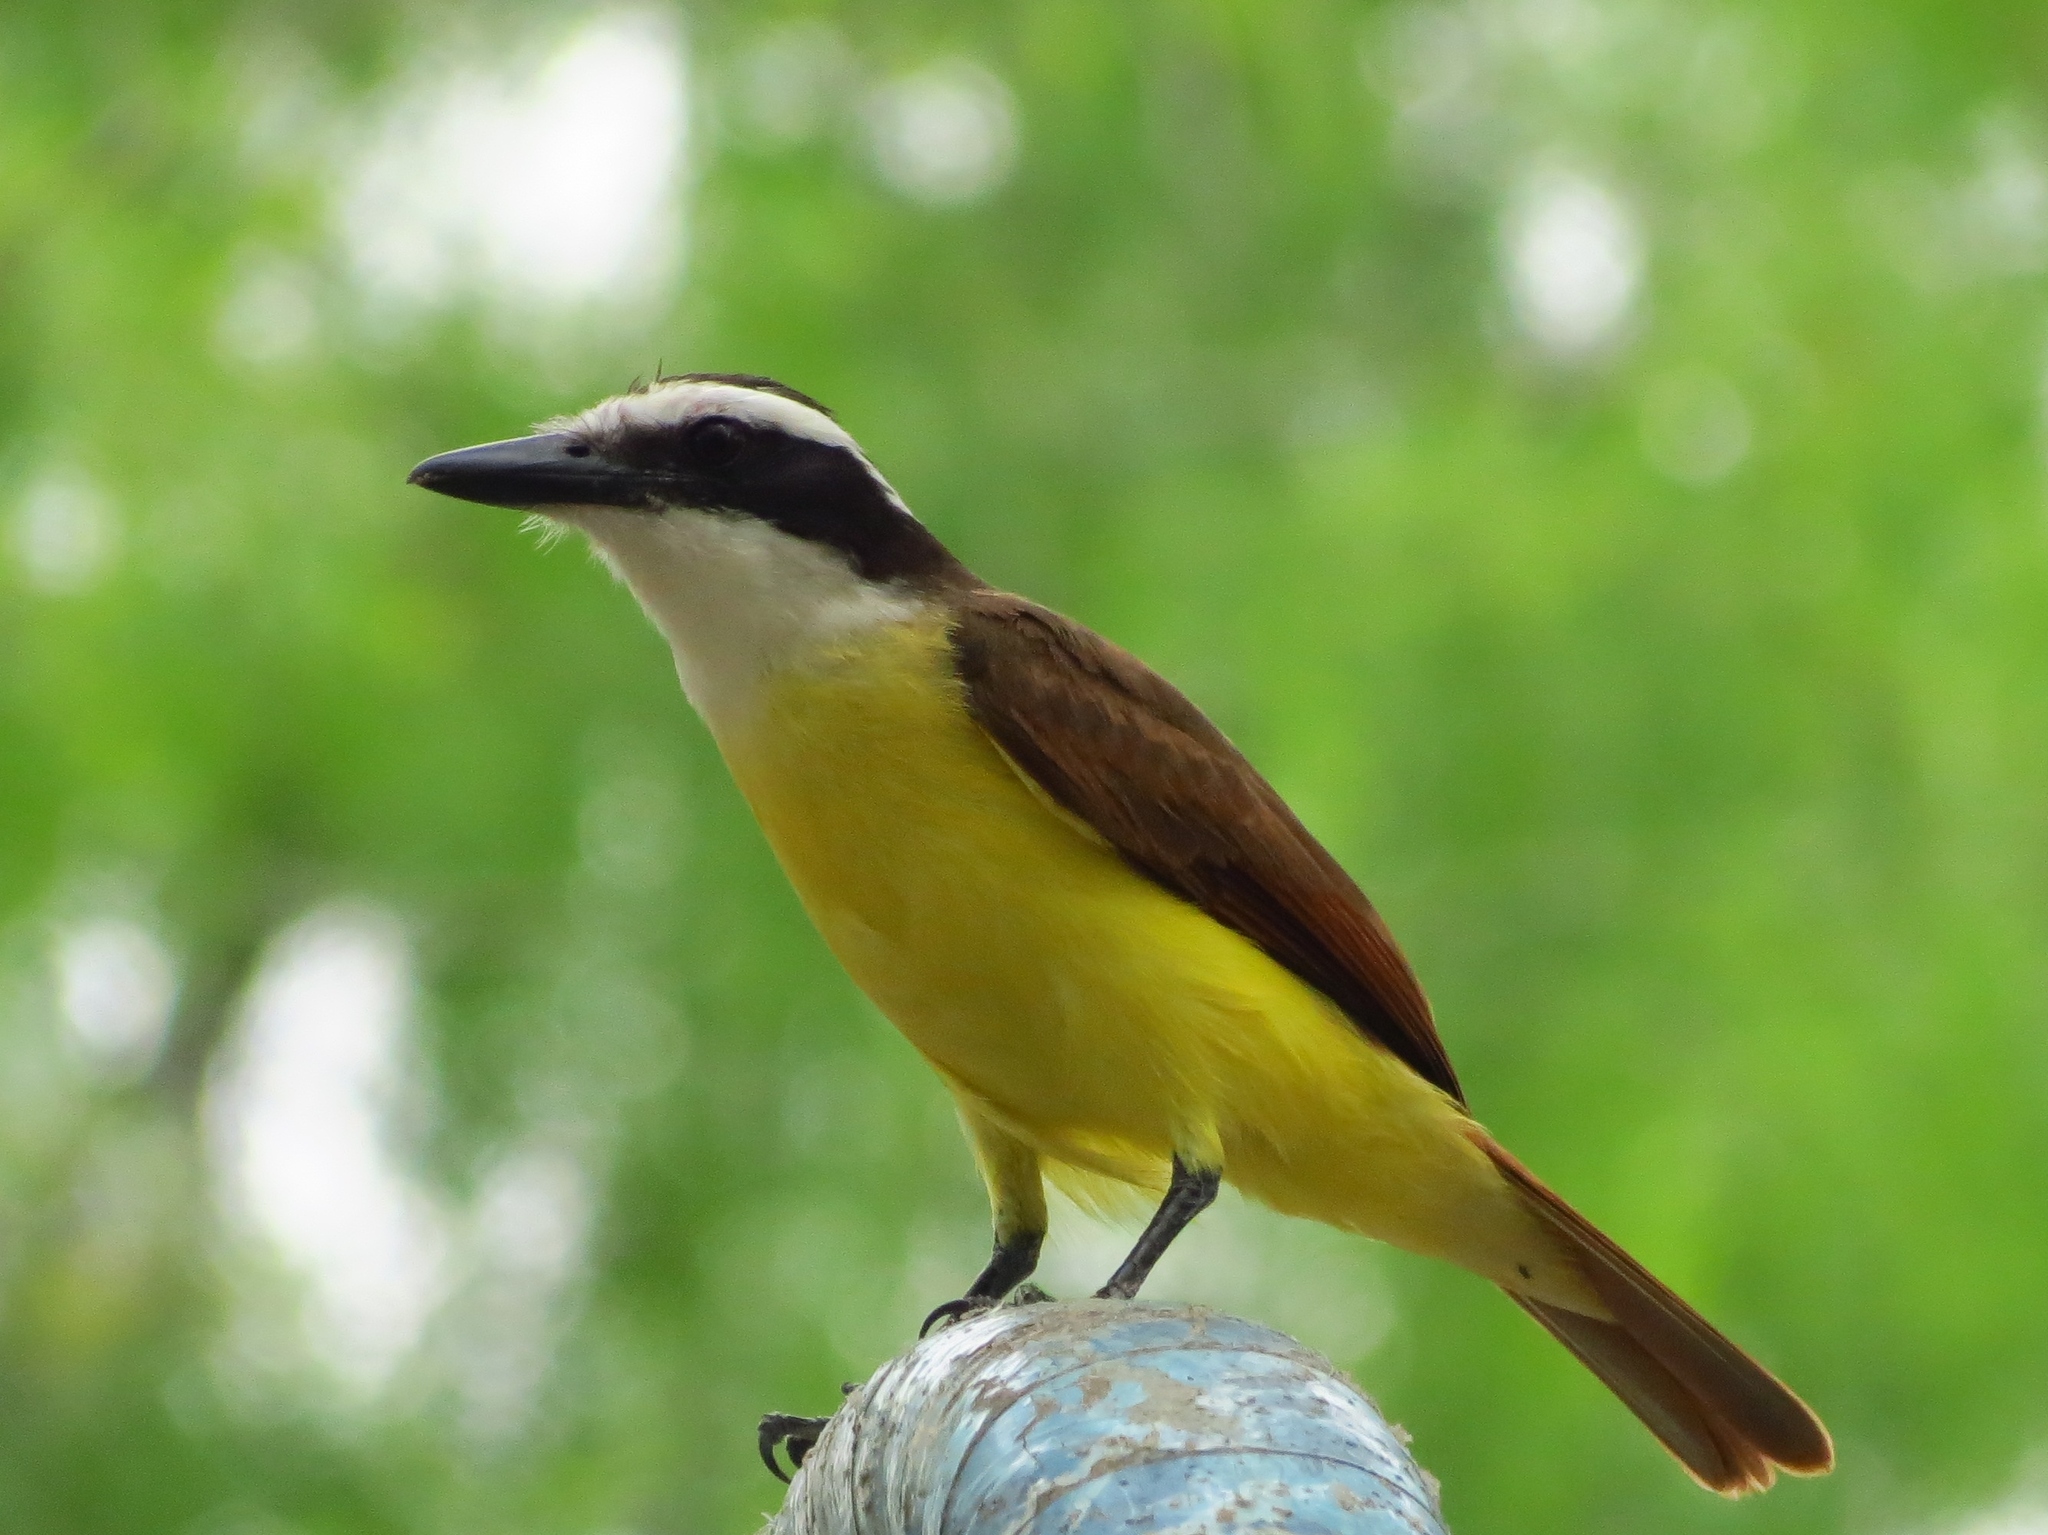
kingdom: Animalia
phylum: Chordata
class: Aves
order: Passeriformes
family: Tyrannidae
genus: Pitangus
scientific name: Pitangus sulphuratus
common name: Great kiskadee
